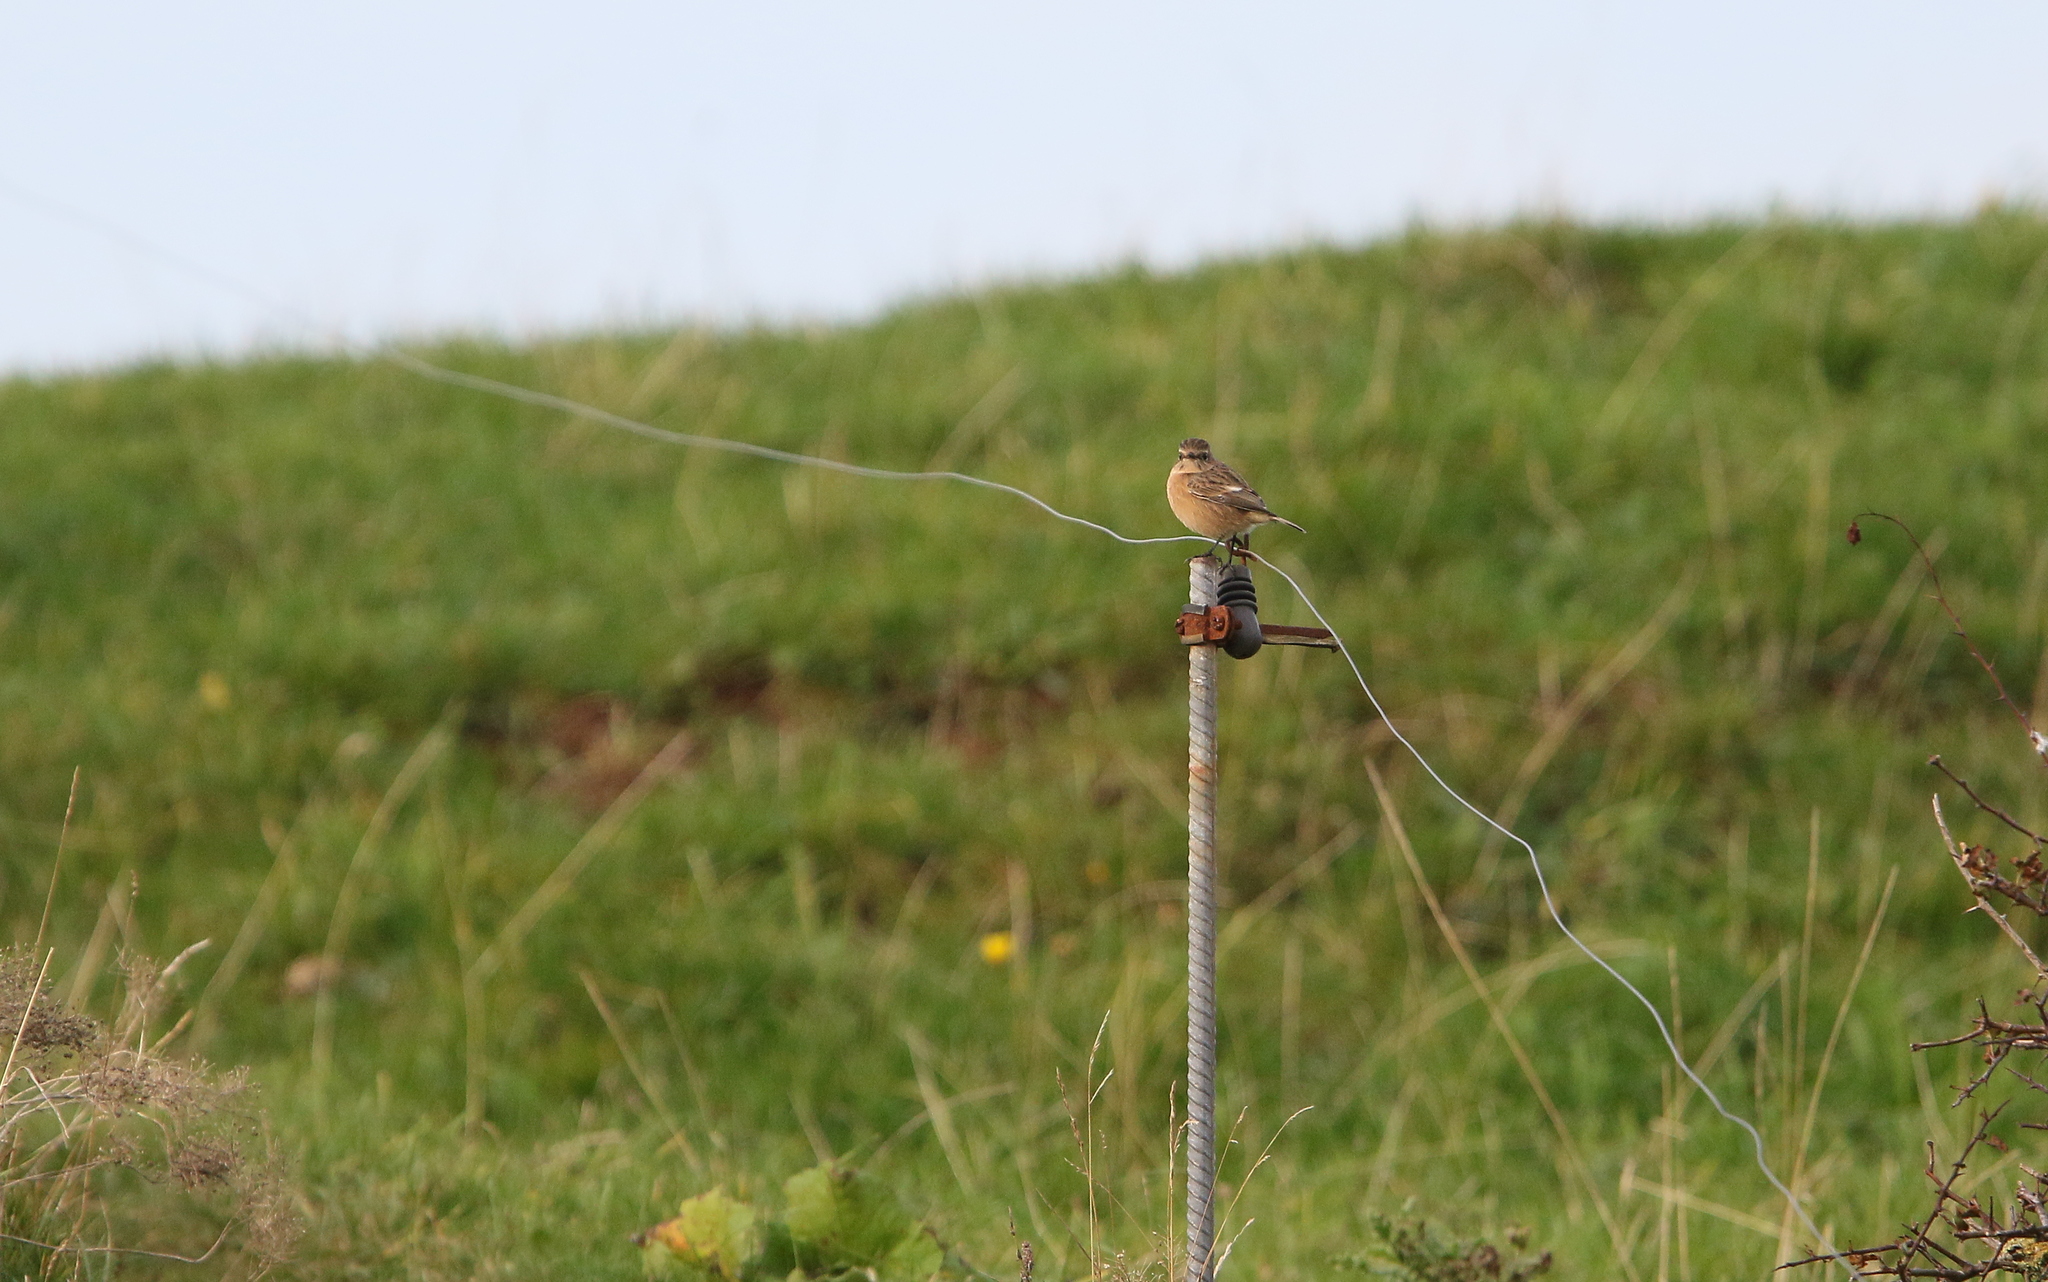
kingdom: Animalia
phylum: Chordata
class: Aves
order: Passeriformes
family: Muscicapidae
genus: Saxicola
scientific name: Saxicola rubicola
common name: European stonechat
